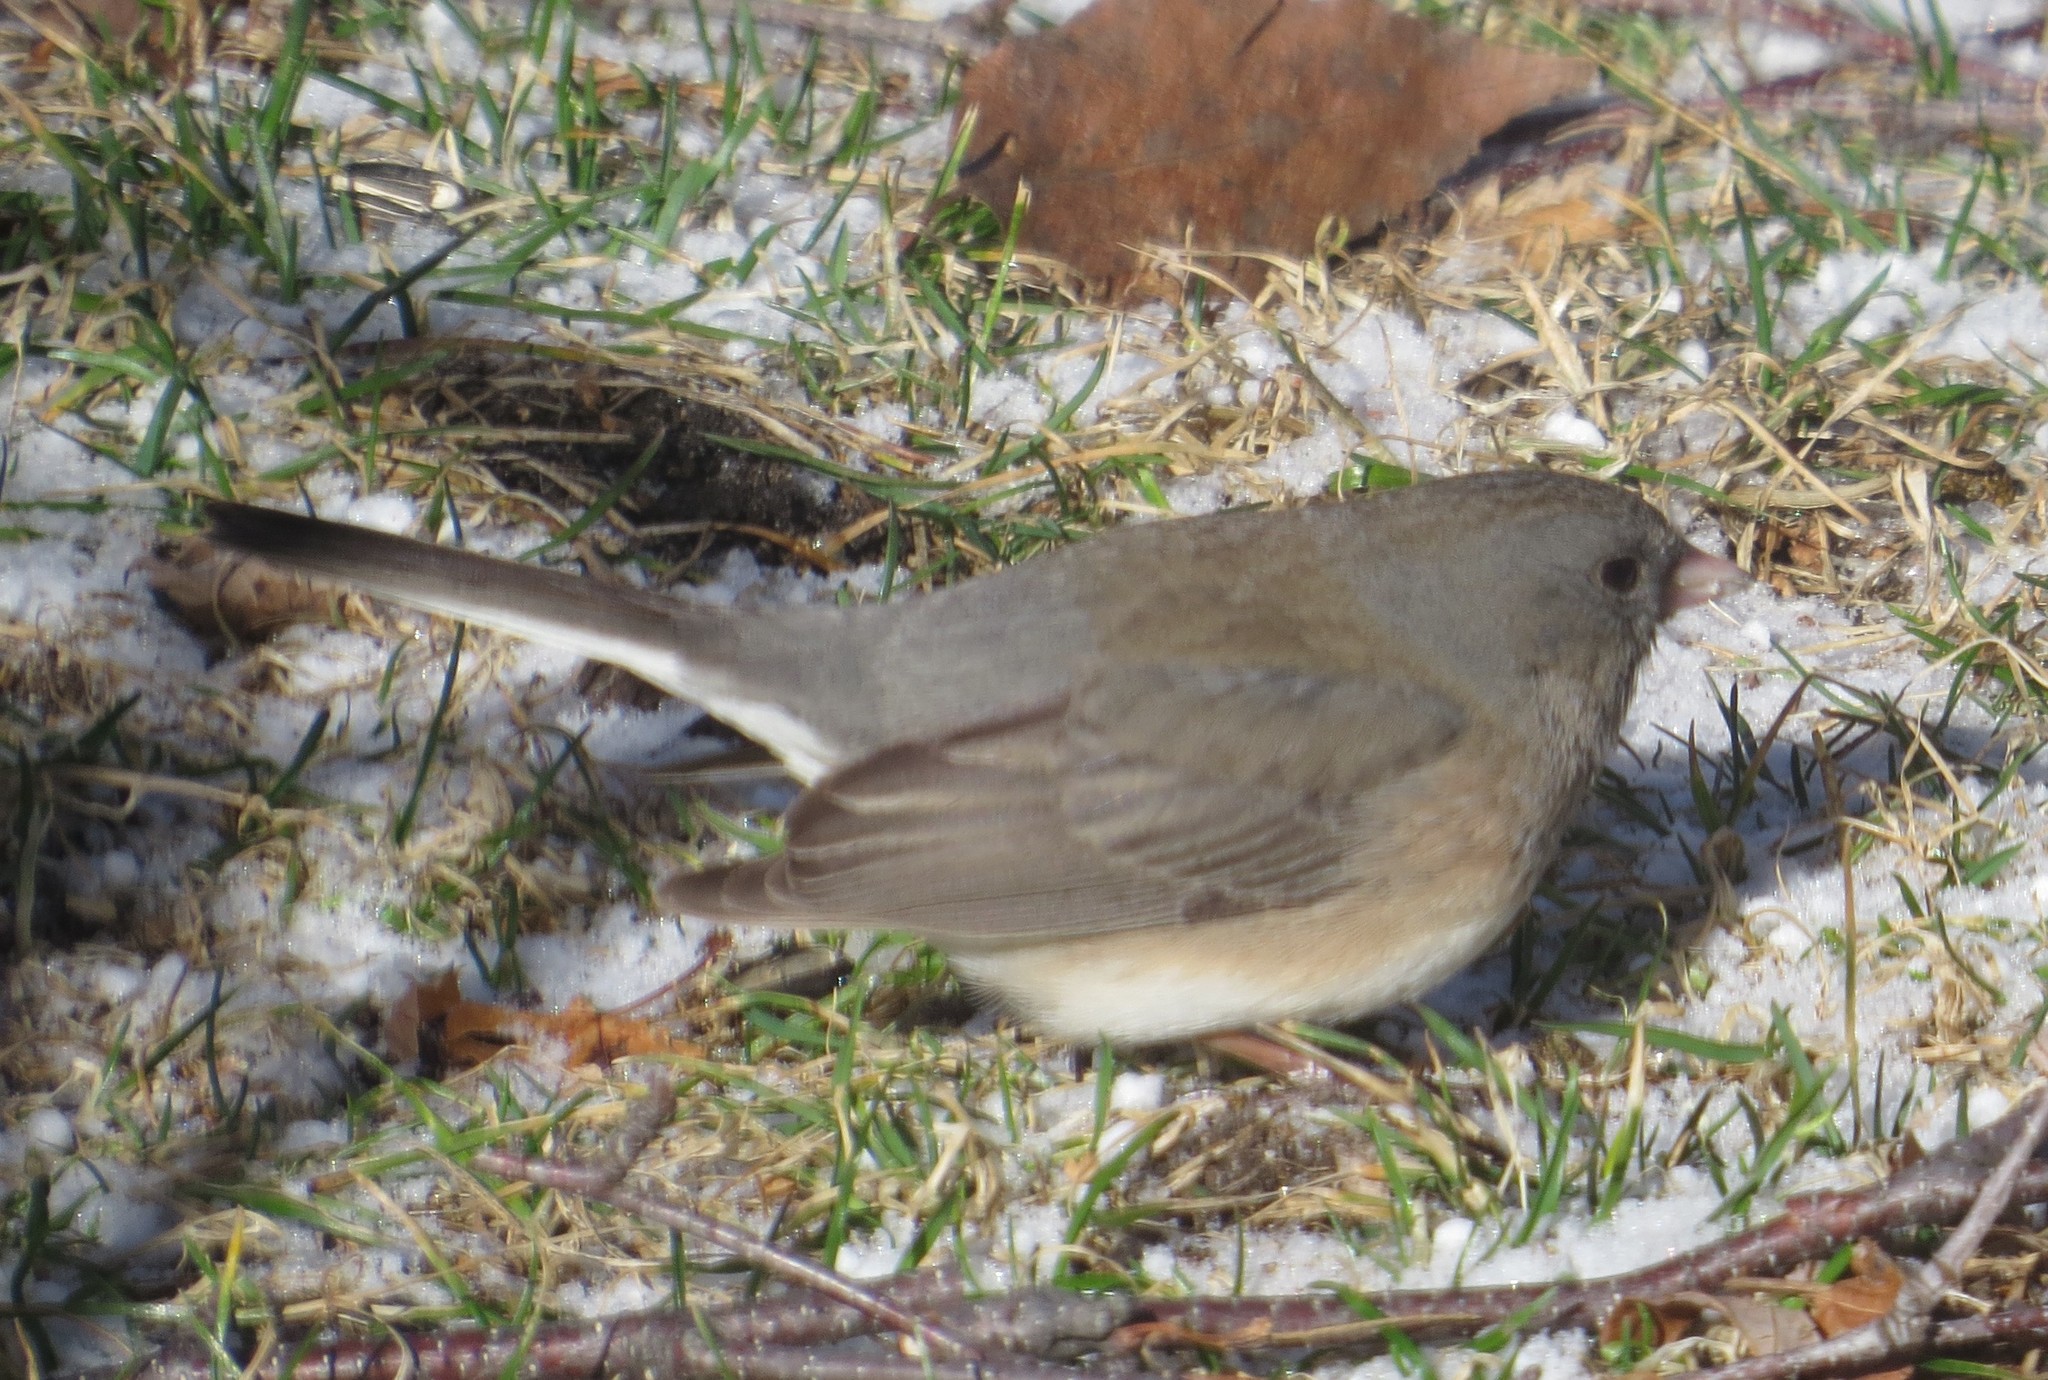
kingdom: Animalia
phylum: Chordata
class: Aves
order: Passeriformes
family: Passerellidae
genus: Junco
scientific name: Junco hyemalis
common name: Dark-eyed junco
